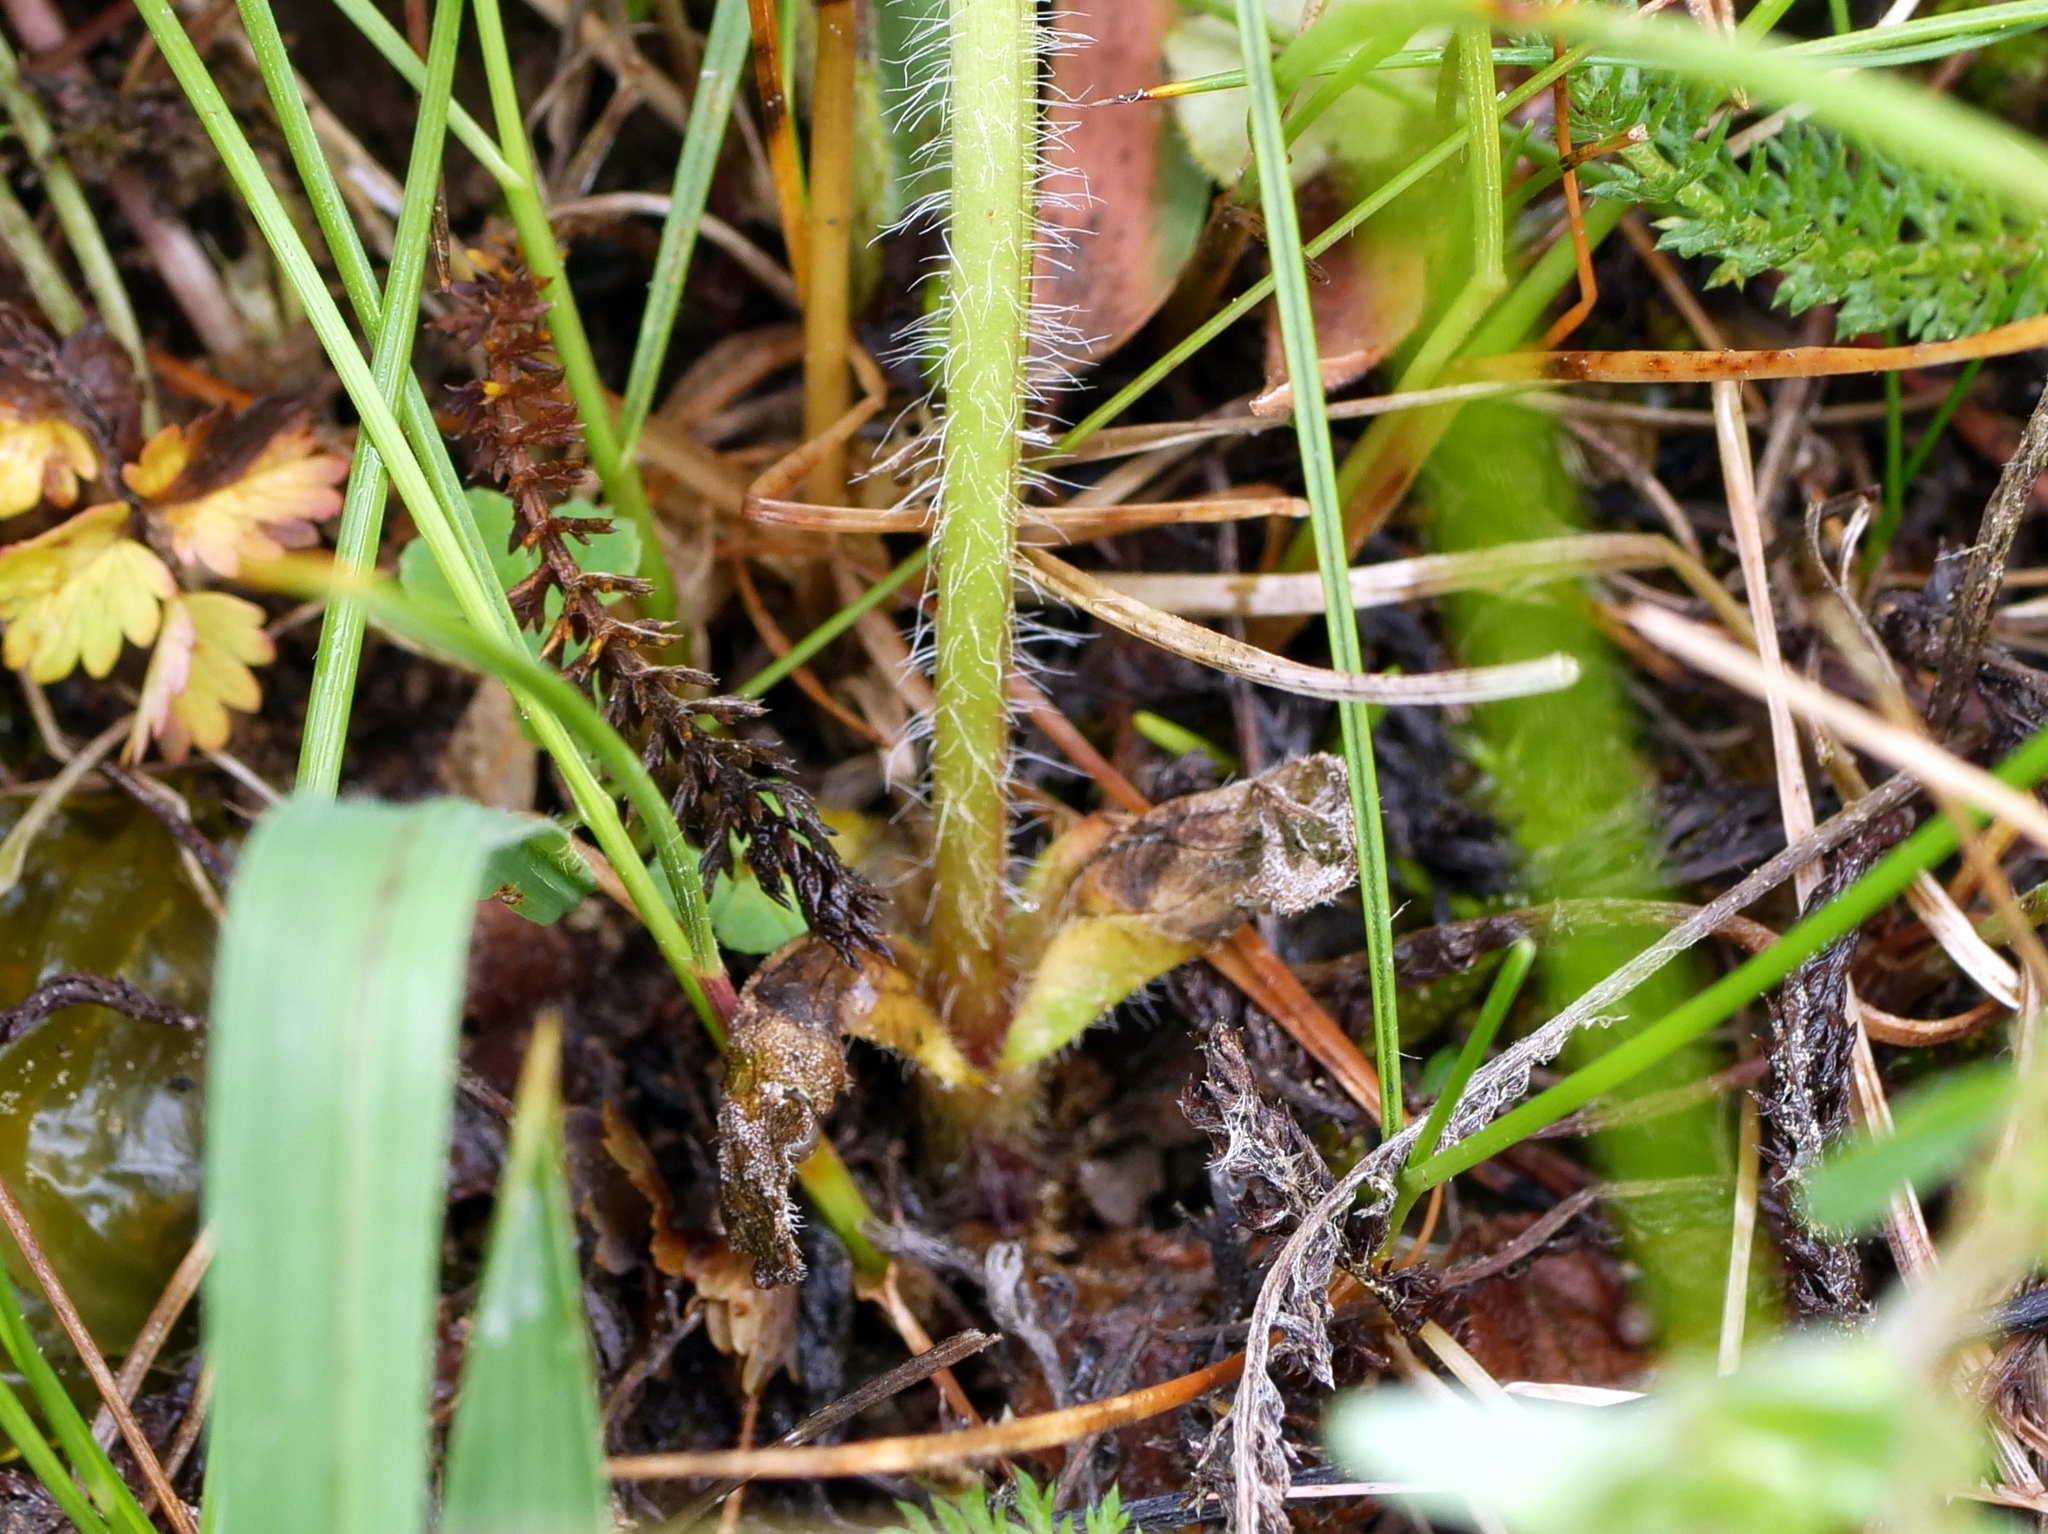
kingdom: Plantae
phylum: Tracheophyta
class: Magnoliopsida
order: Lamiales
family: Lamiaceae
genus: Ajuga
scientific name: Ajuga genevensis
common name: Blue bugle
